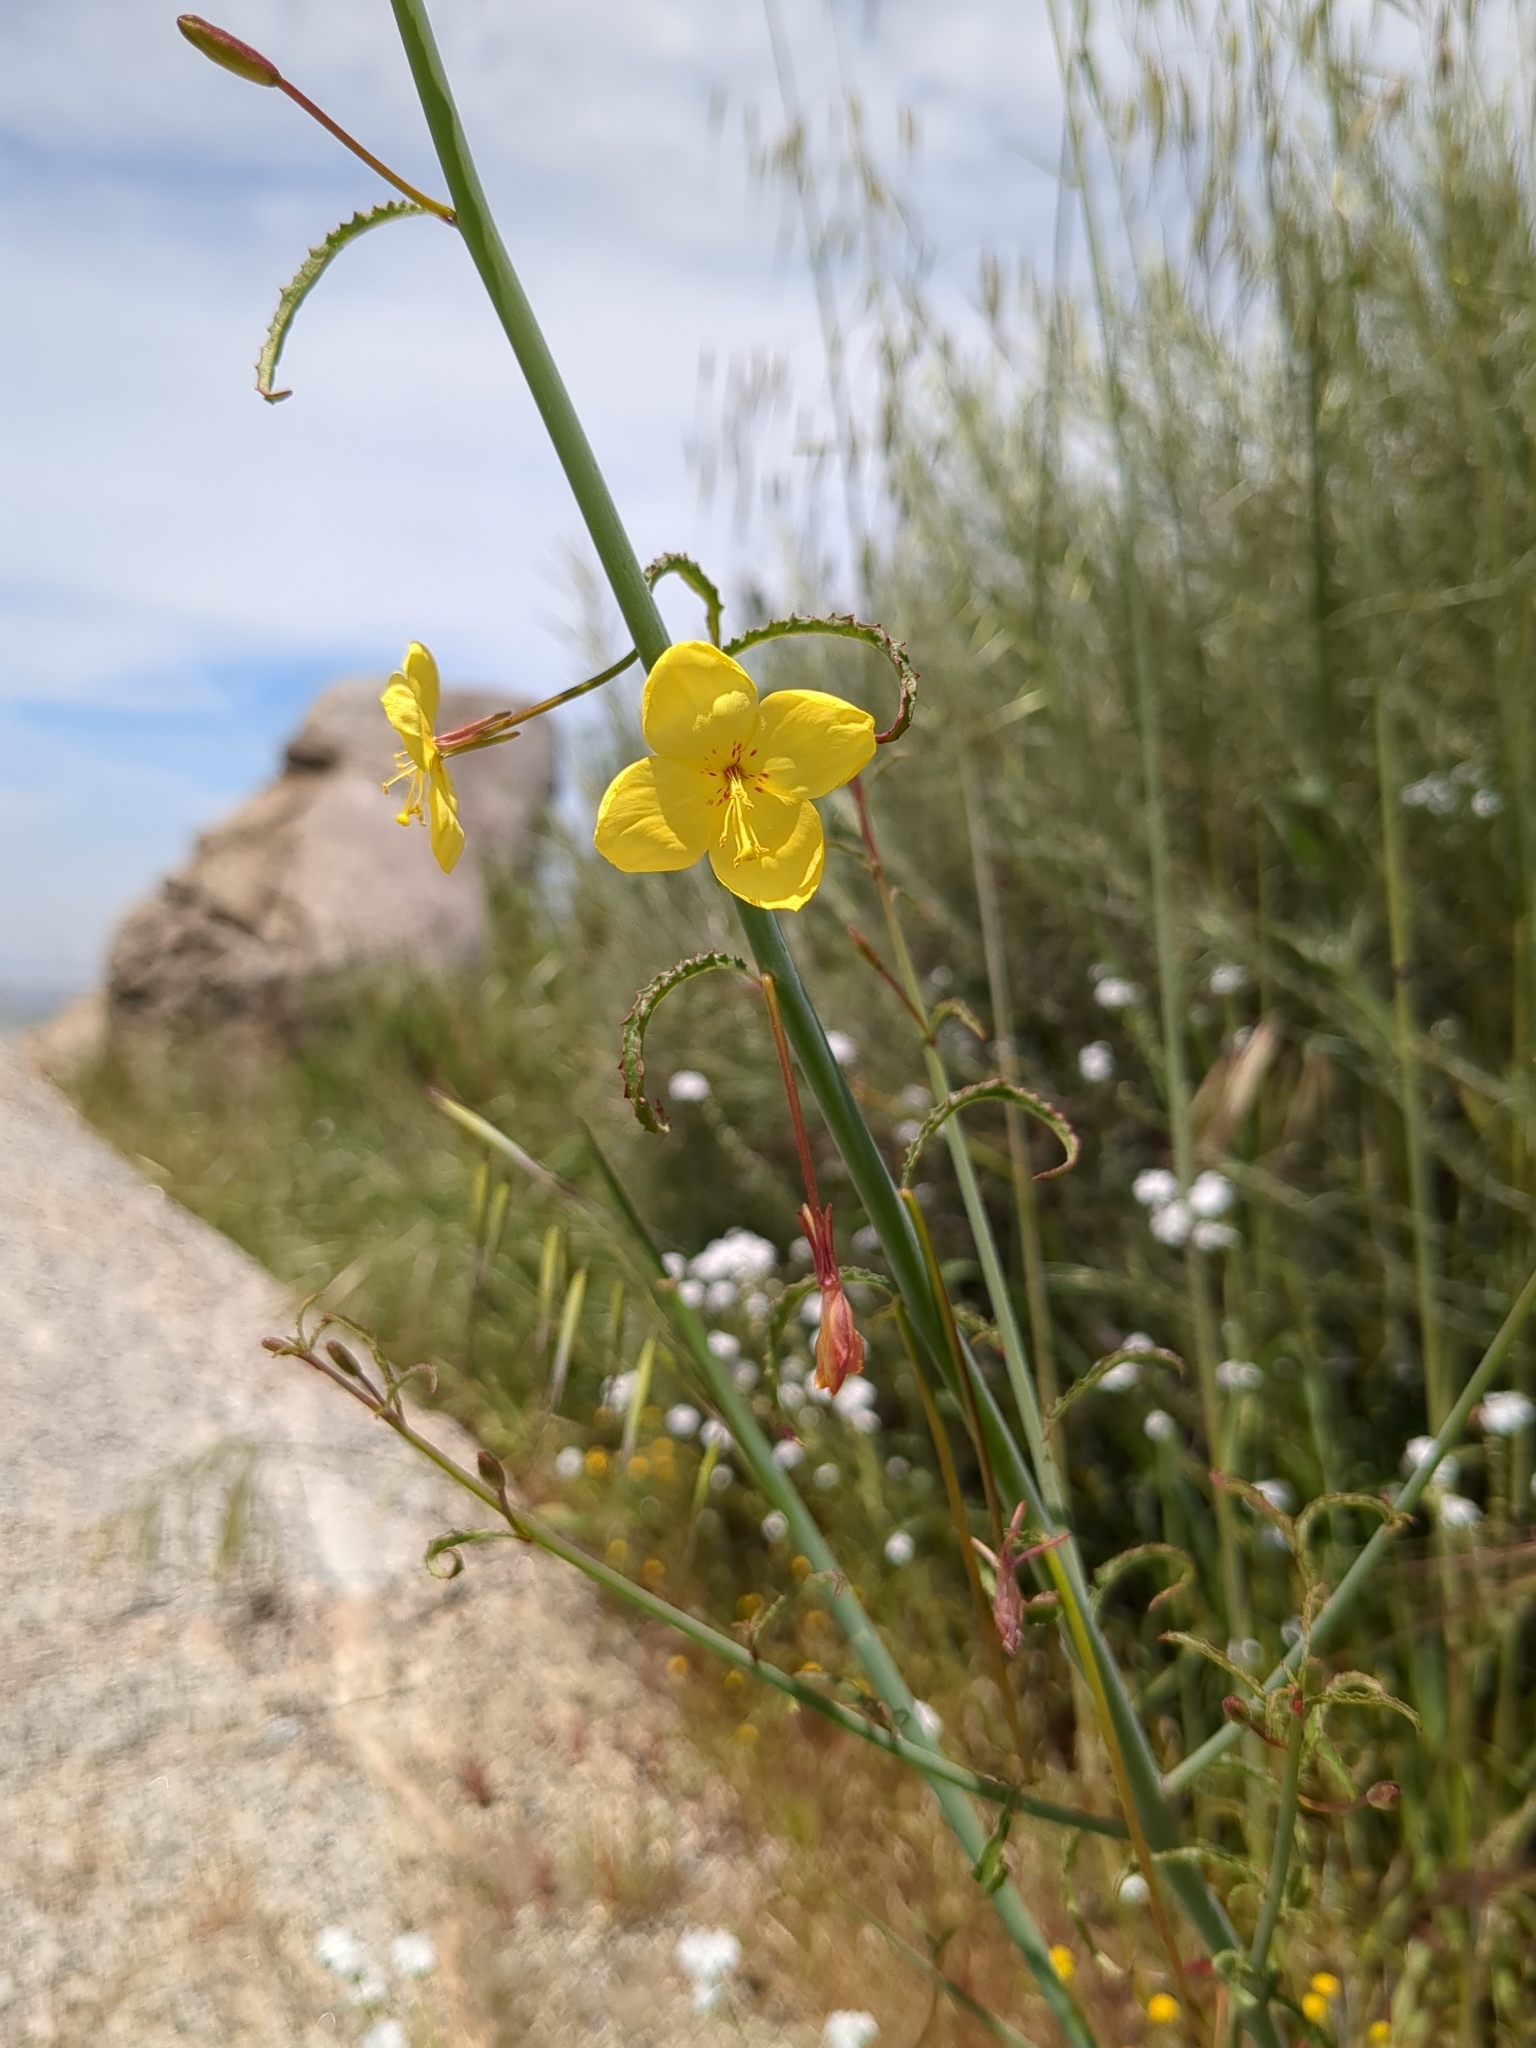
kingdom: Plantae
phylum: Tracheophyta
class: Magnoliopsida
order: Myrtales
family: Onagraceae
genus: Eulobus
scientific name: Eulobus californicus
